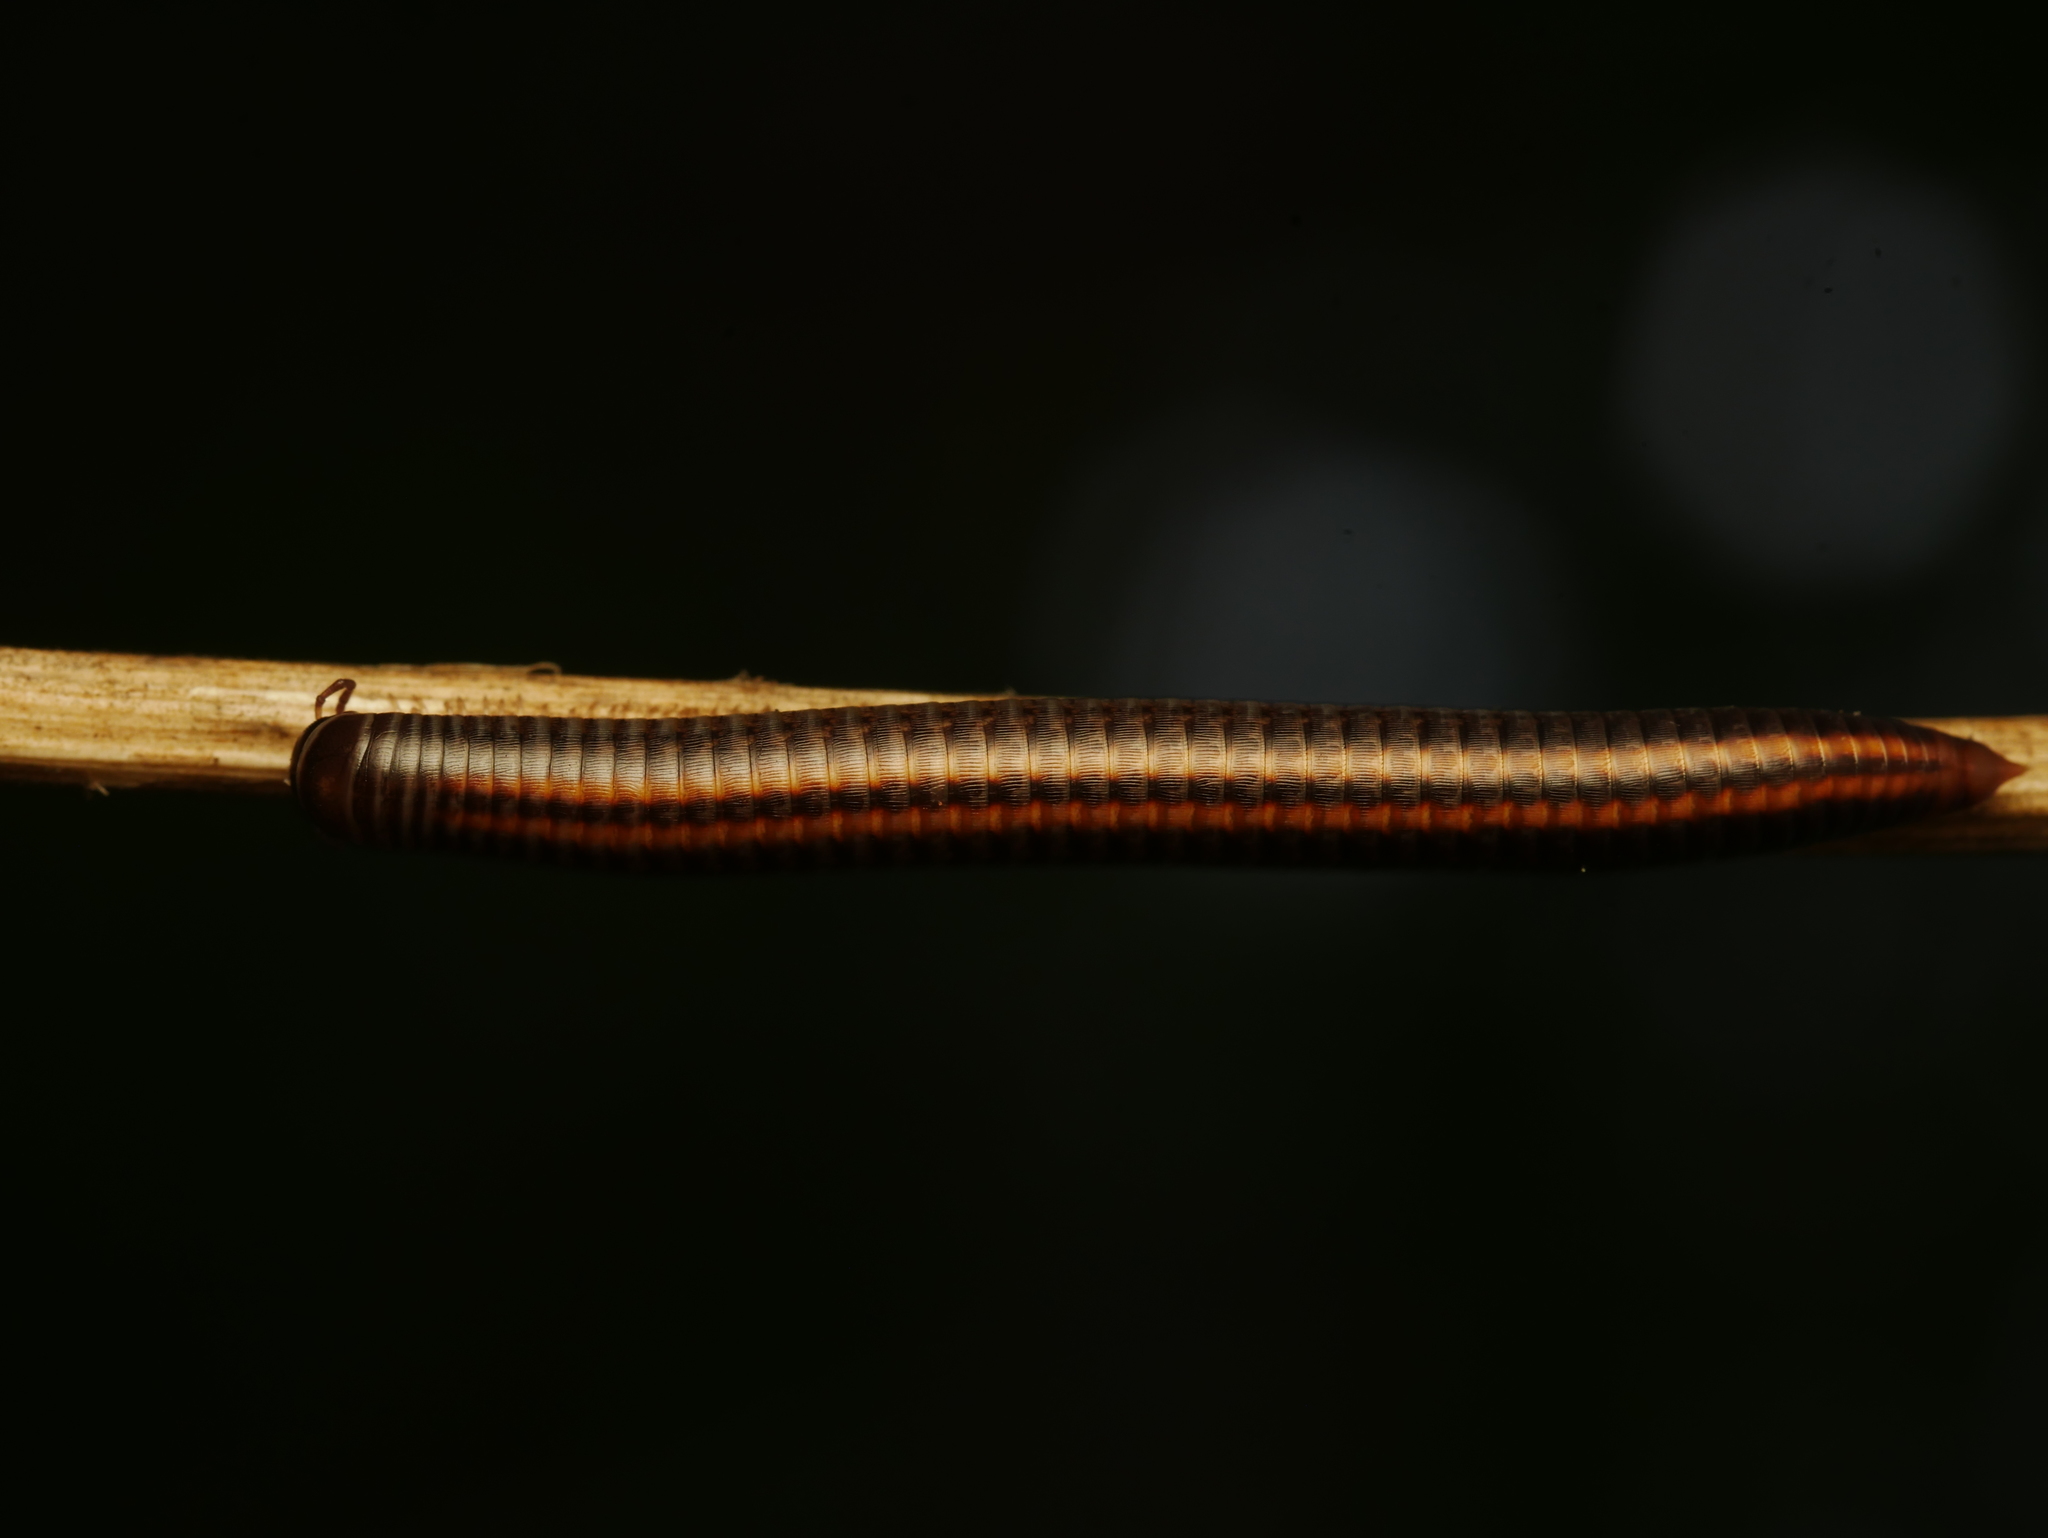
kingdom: Animalia
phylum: Arthropoda
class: Diplopoda
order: Julida
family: Julidae
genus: Ommatoiulus
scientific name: Ommatoiulus sabulosus
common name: Striped millipede
